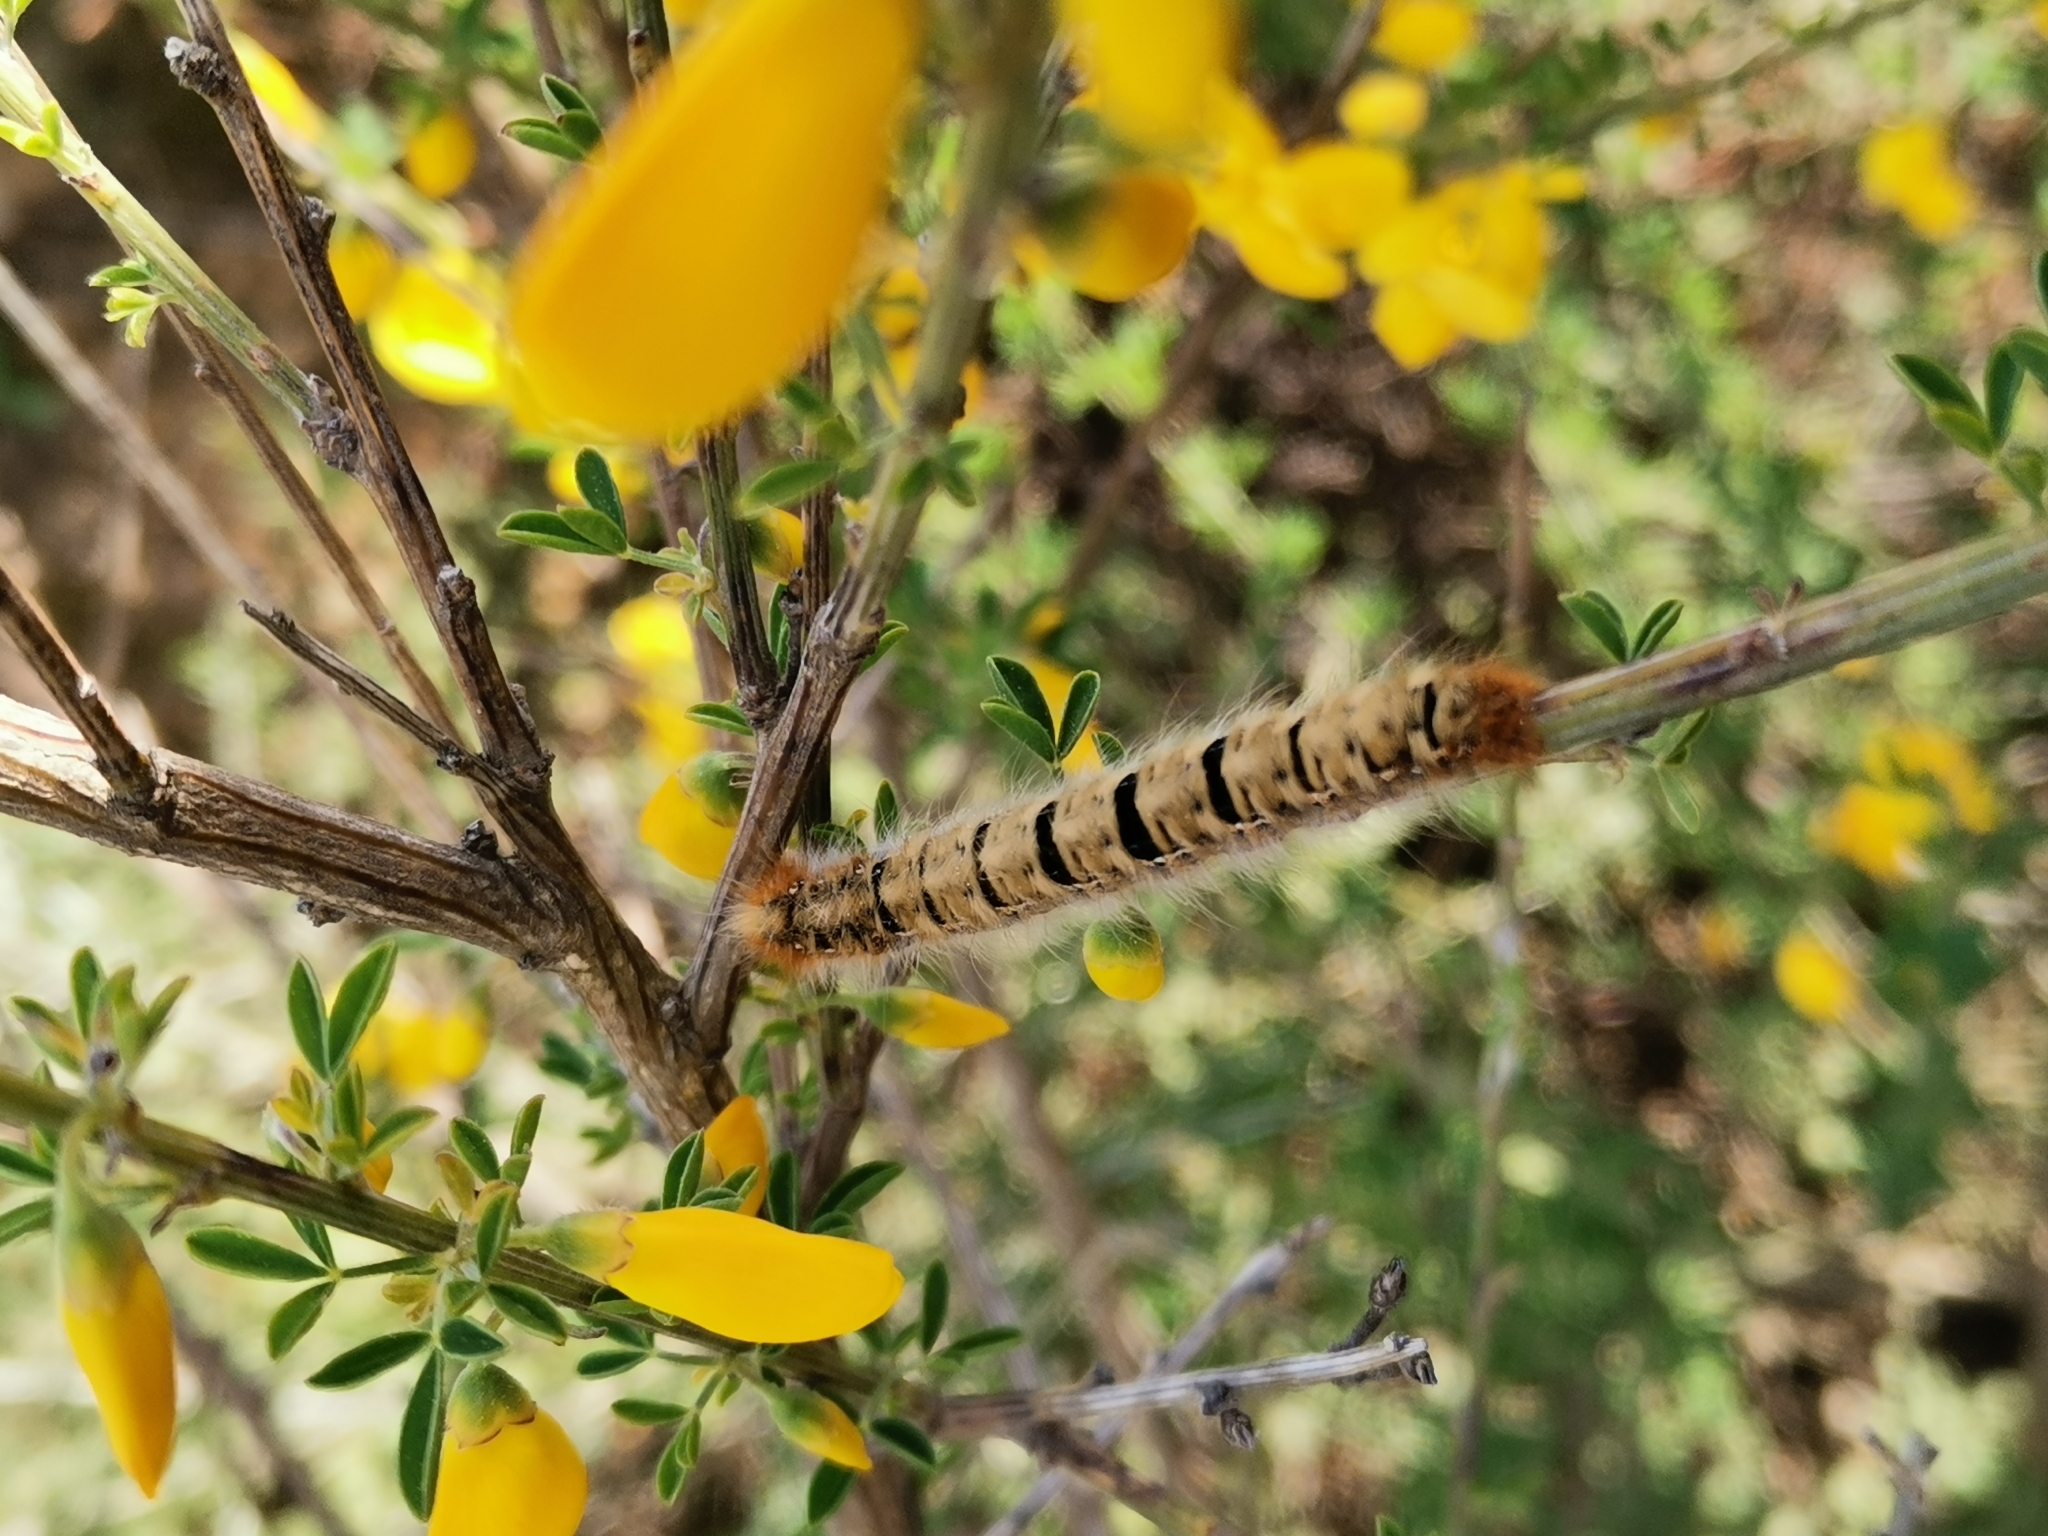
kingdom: Animalia
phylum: Arthropoda
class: Insecta
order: Lepidoptera
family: Lasiocampidae
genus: Lasiocampa
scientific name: Lasiocampa quercus
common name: Oak eggar
